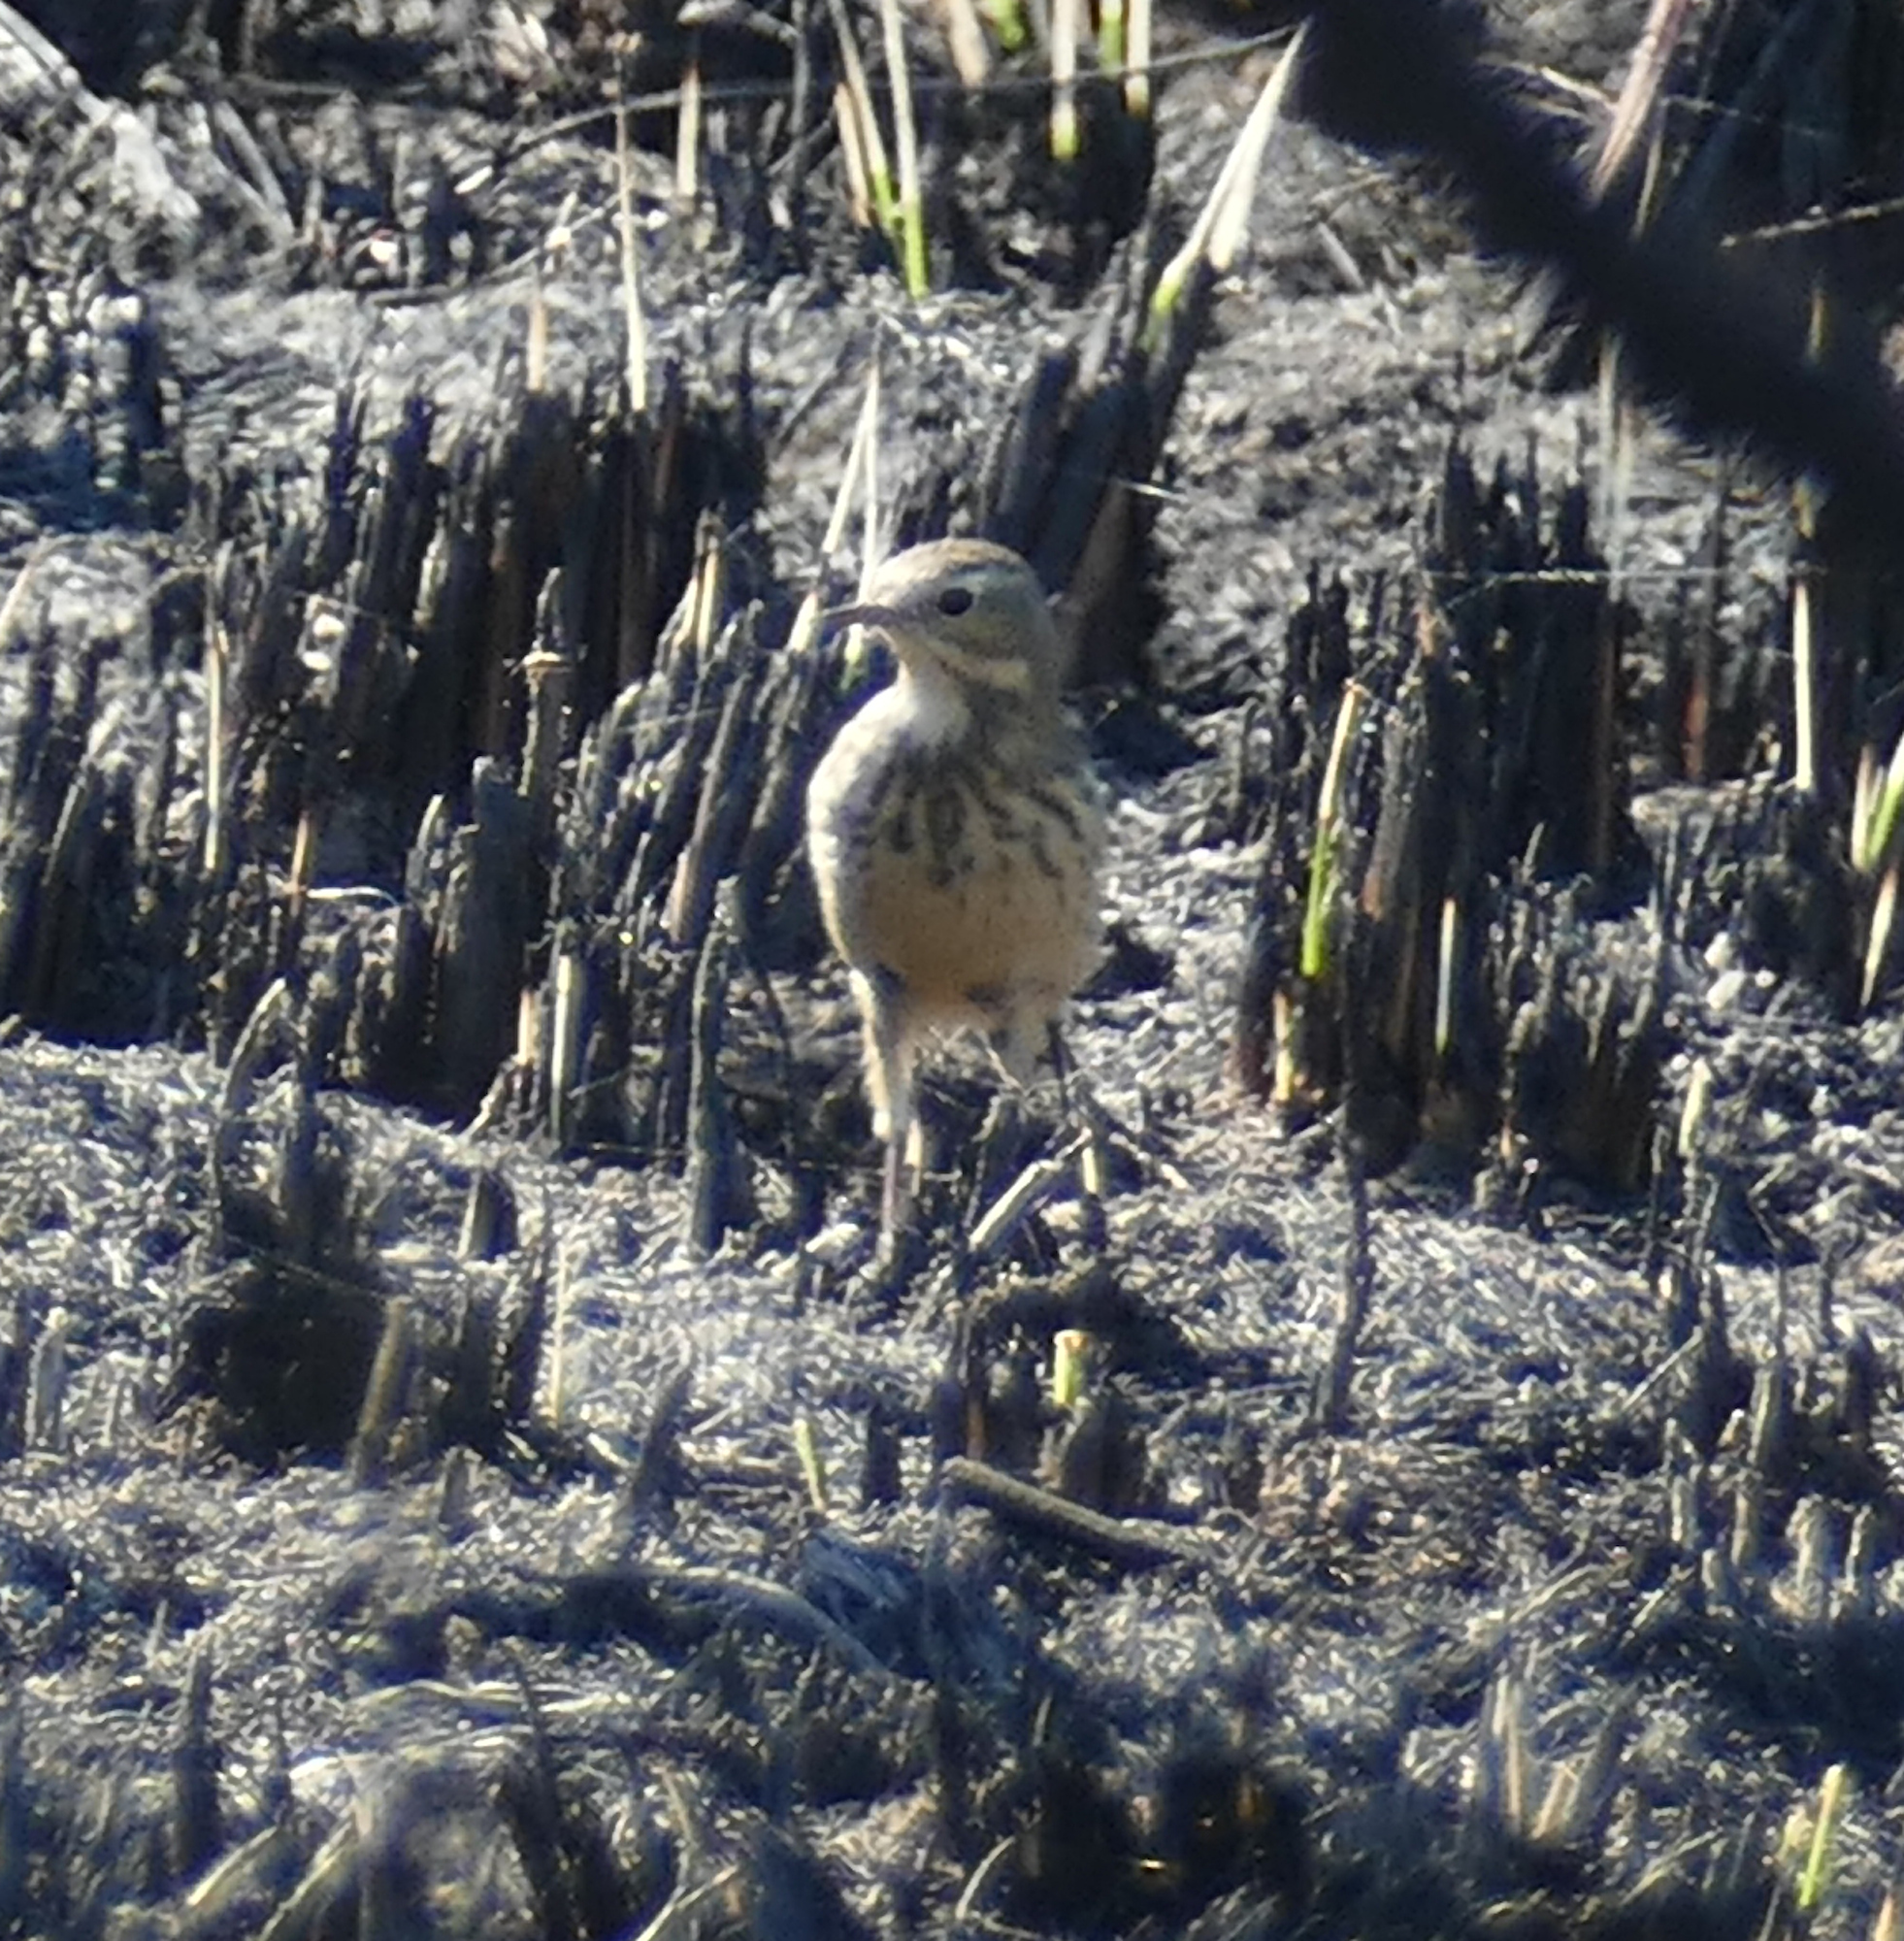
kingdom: Animalia
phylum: Chordata
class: Aves
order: Passeriformes
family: Motacillidae
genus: Anthus
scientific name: Anthus rubescens
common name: Buff-bellied pipit
